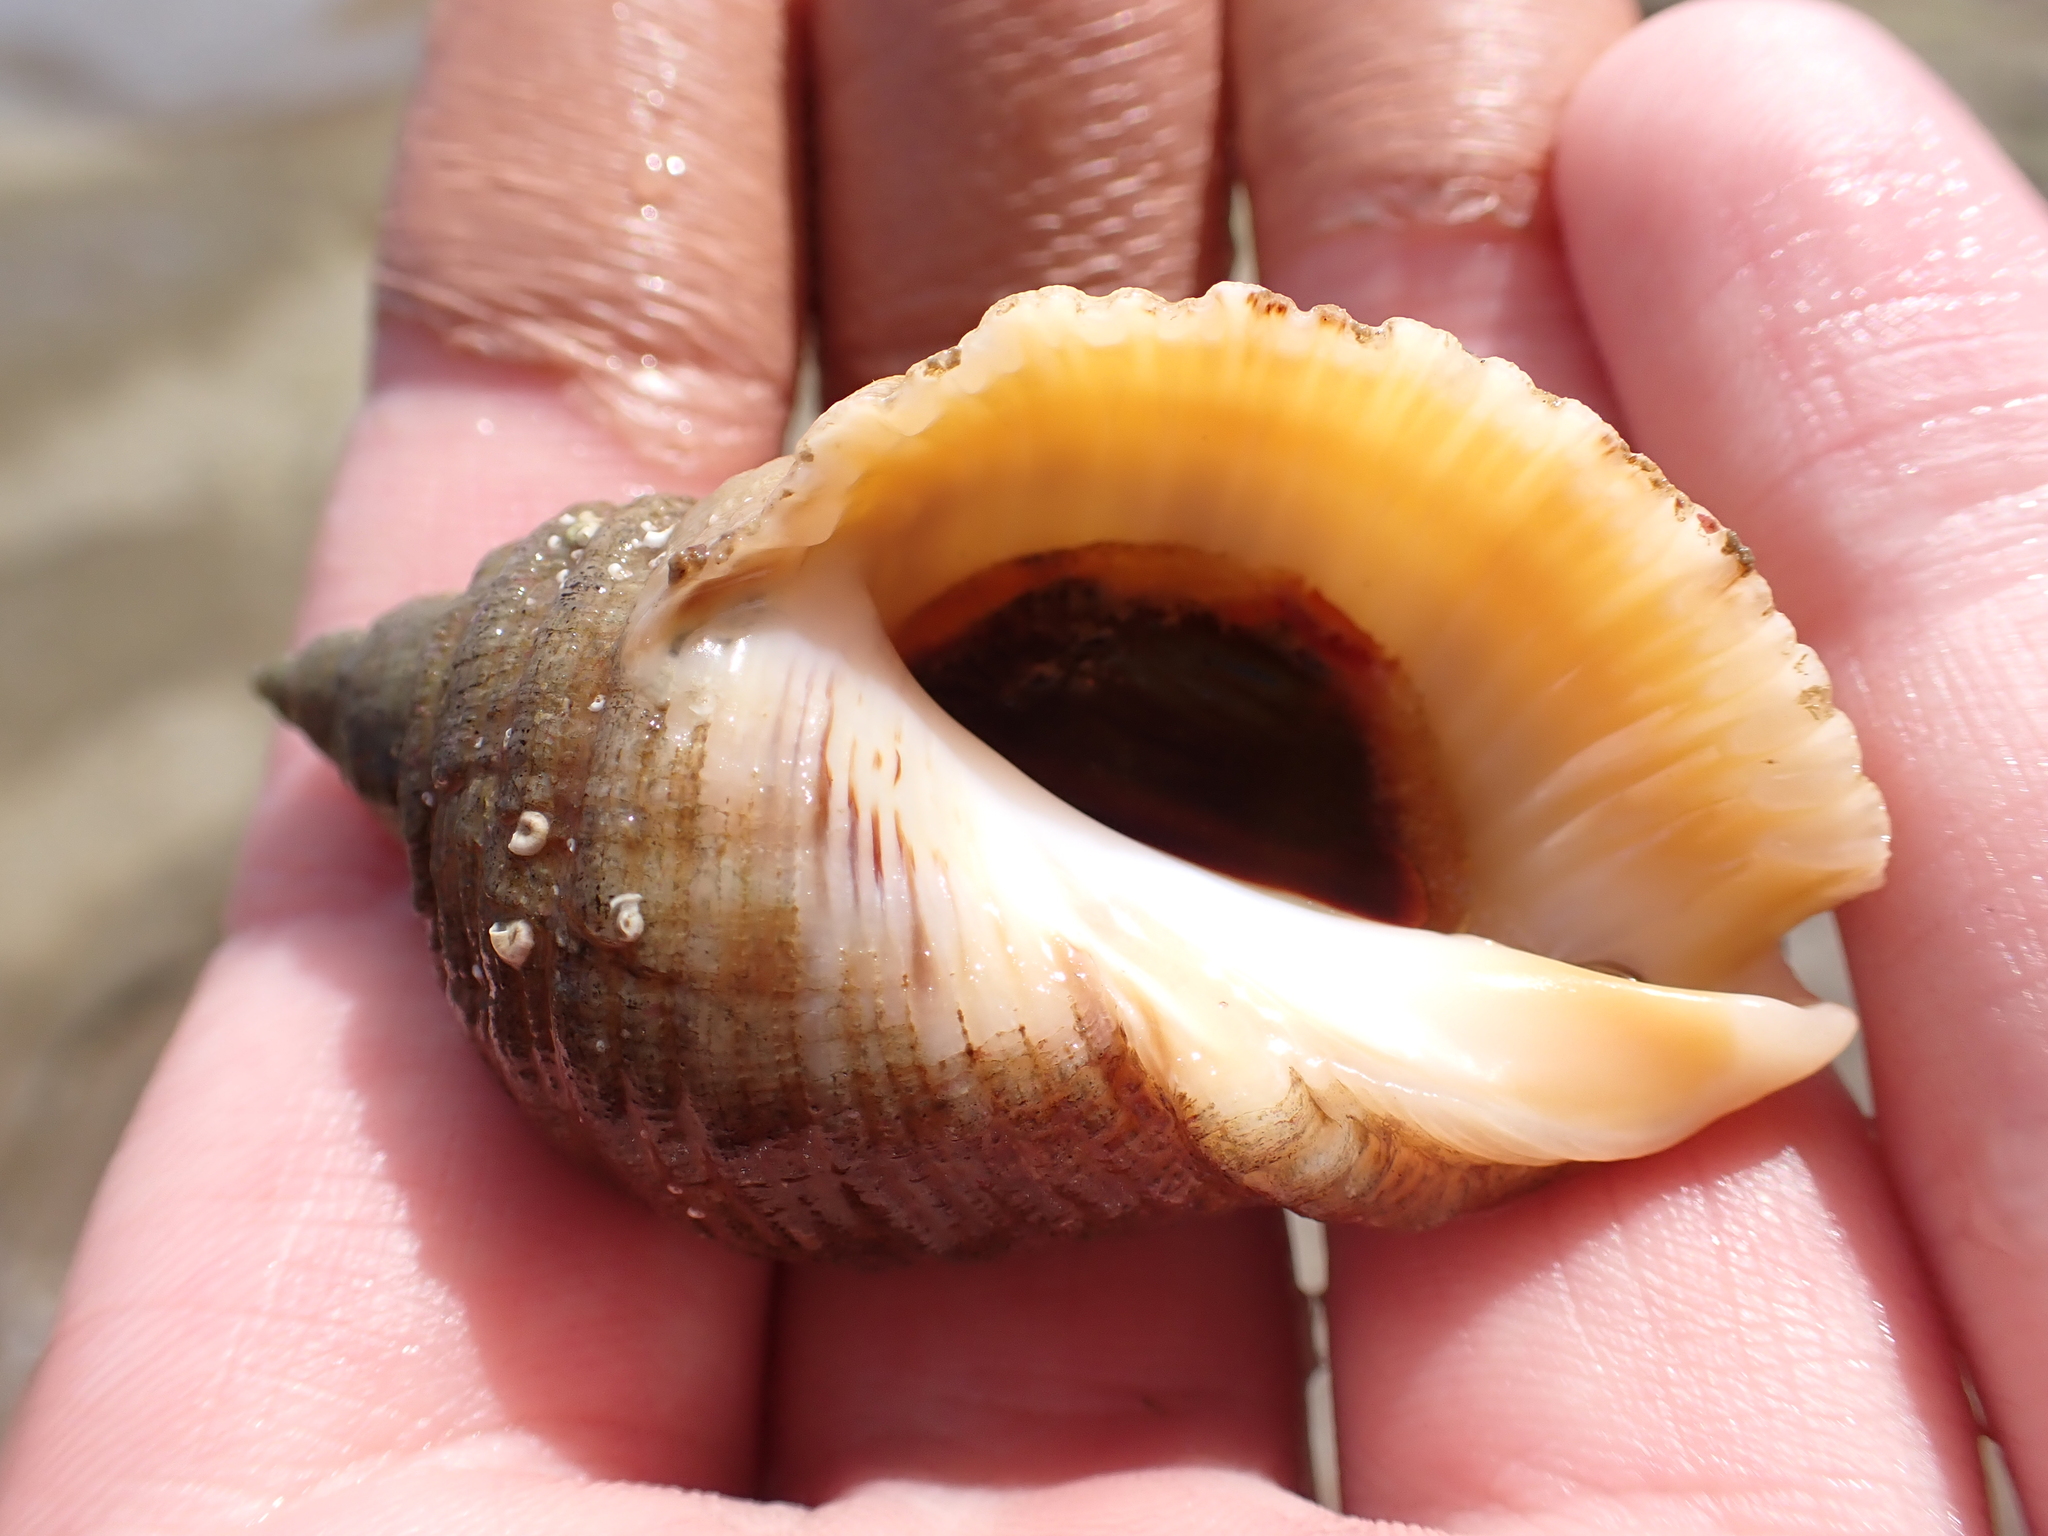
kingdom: Animalia
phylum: Mollusca
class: Gastropoda
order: Neogastropoda
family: Muricidae
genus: Dicathais
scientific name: Dicathais orbita
